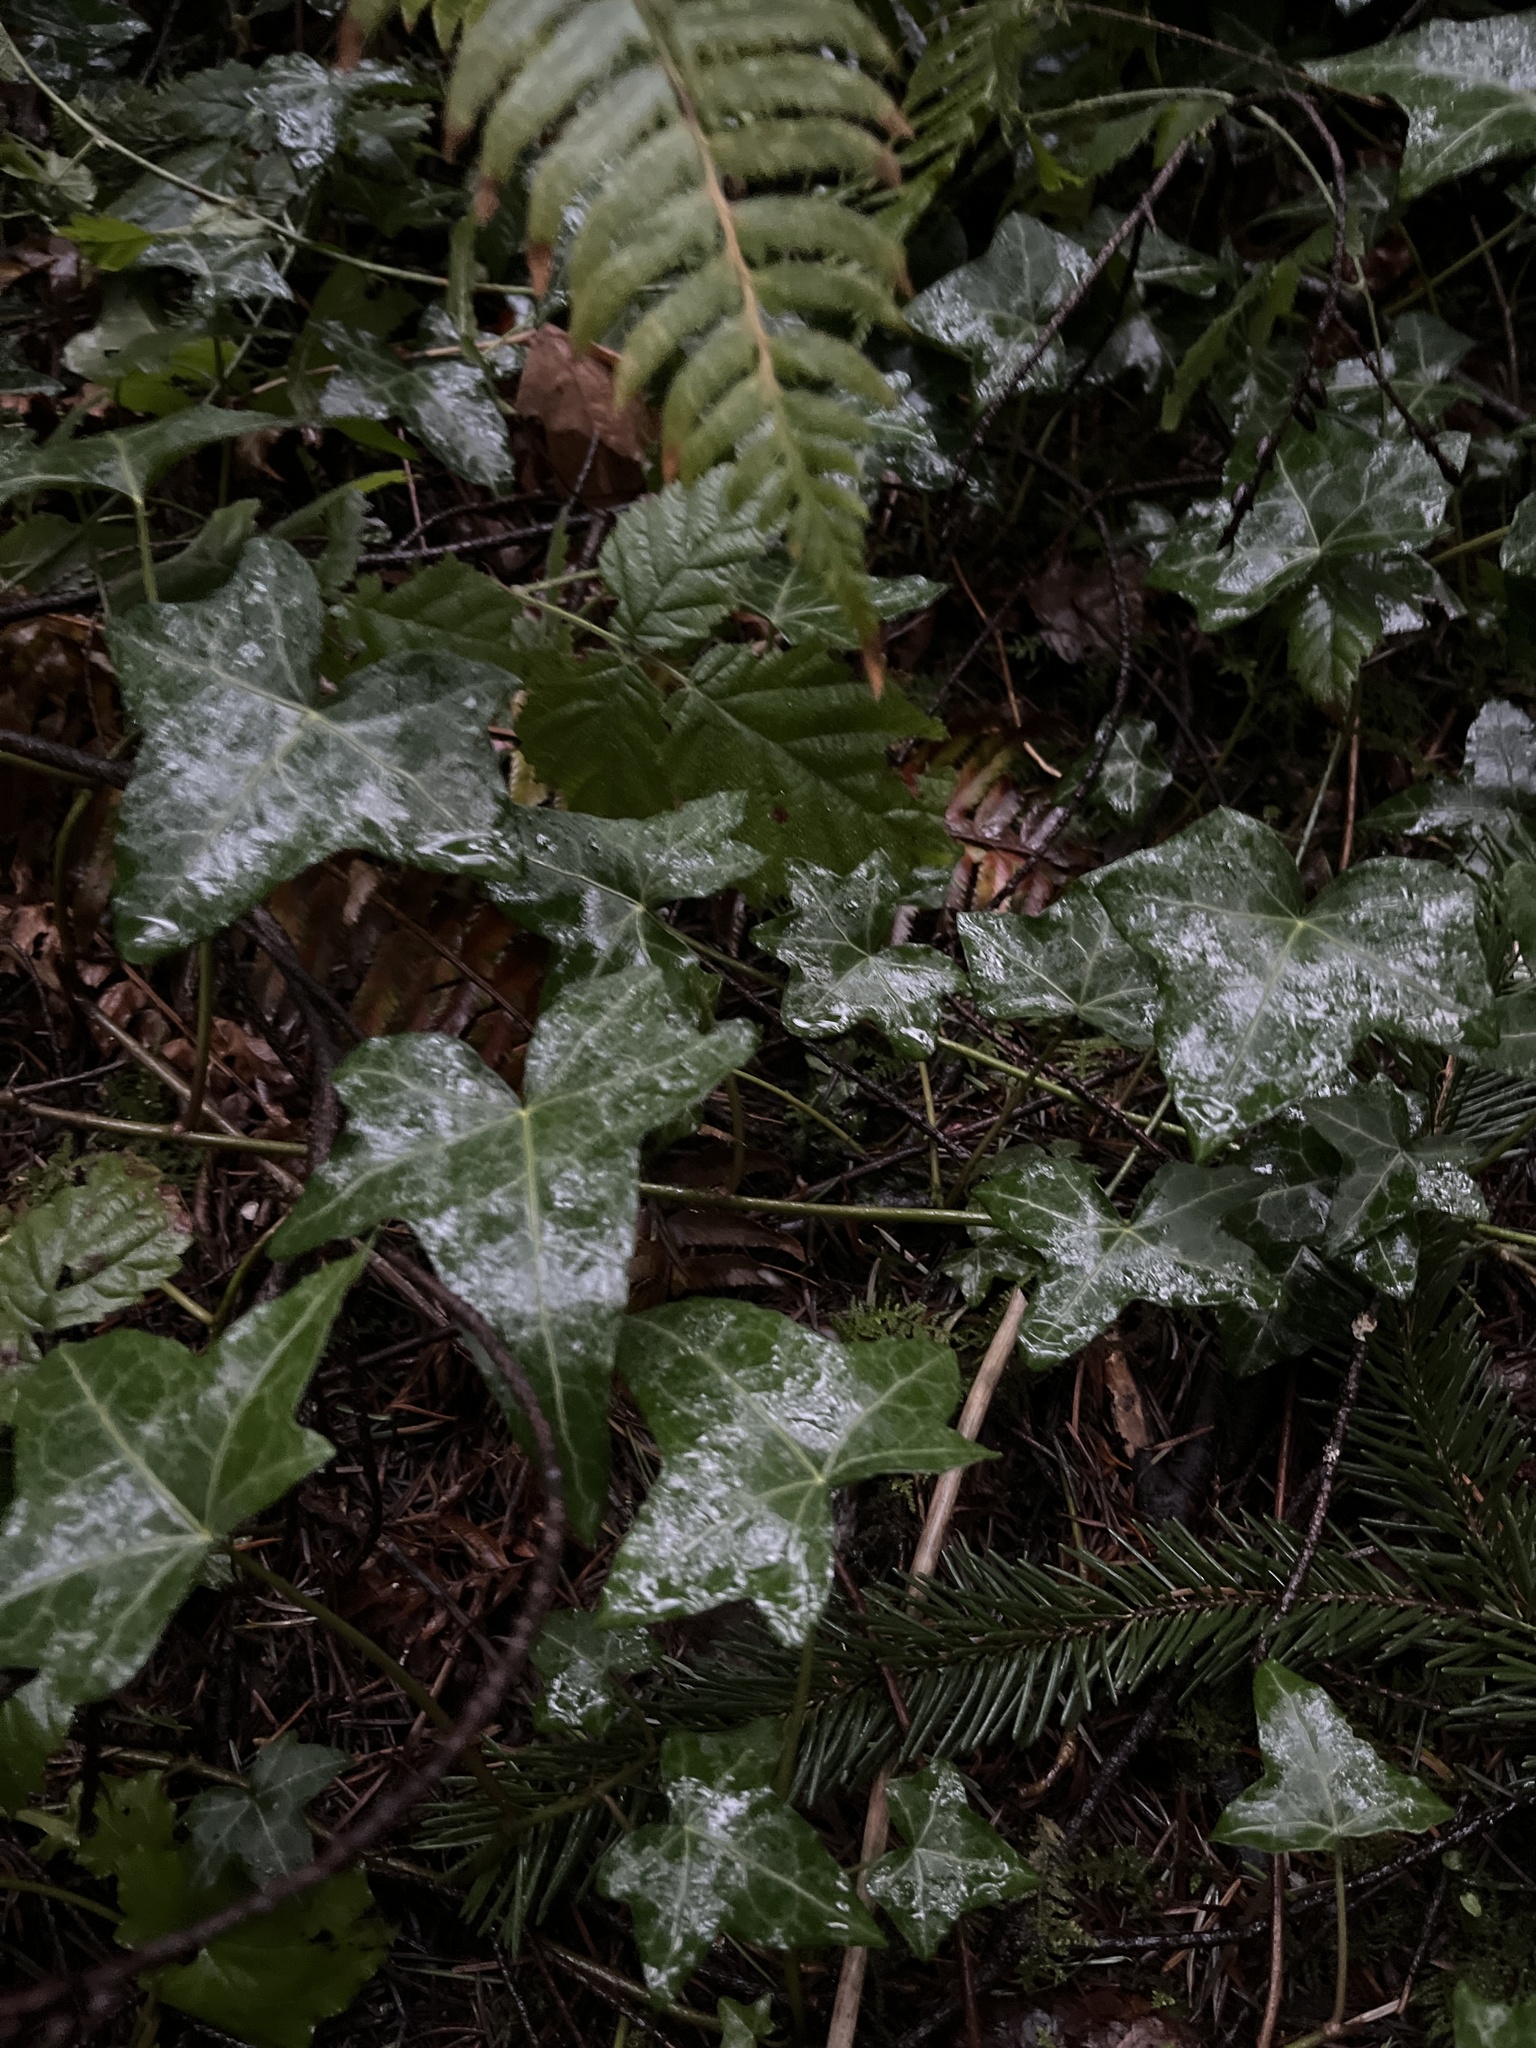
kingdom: Plantae
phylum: Tracheophyta
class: Magnoliopsida
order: Apiales
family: Araliaceae
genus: Hedera
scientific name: Hedera helix
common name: Ivy
